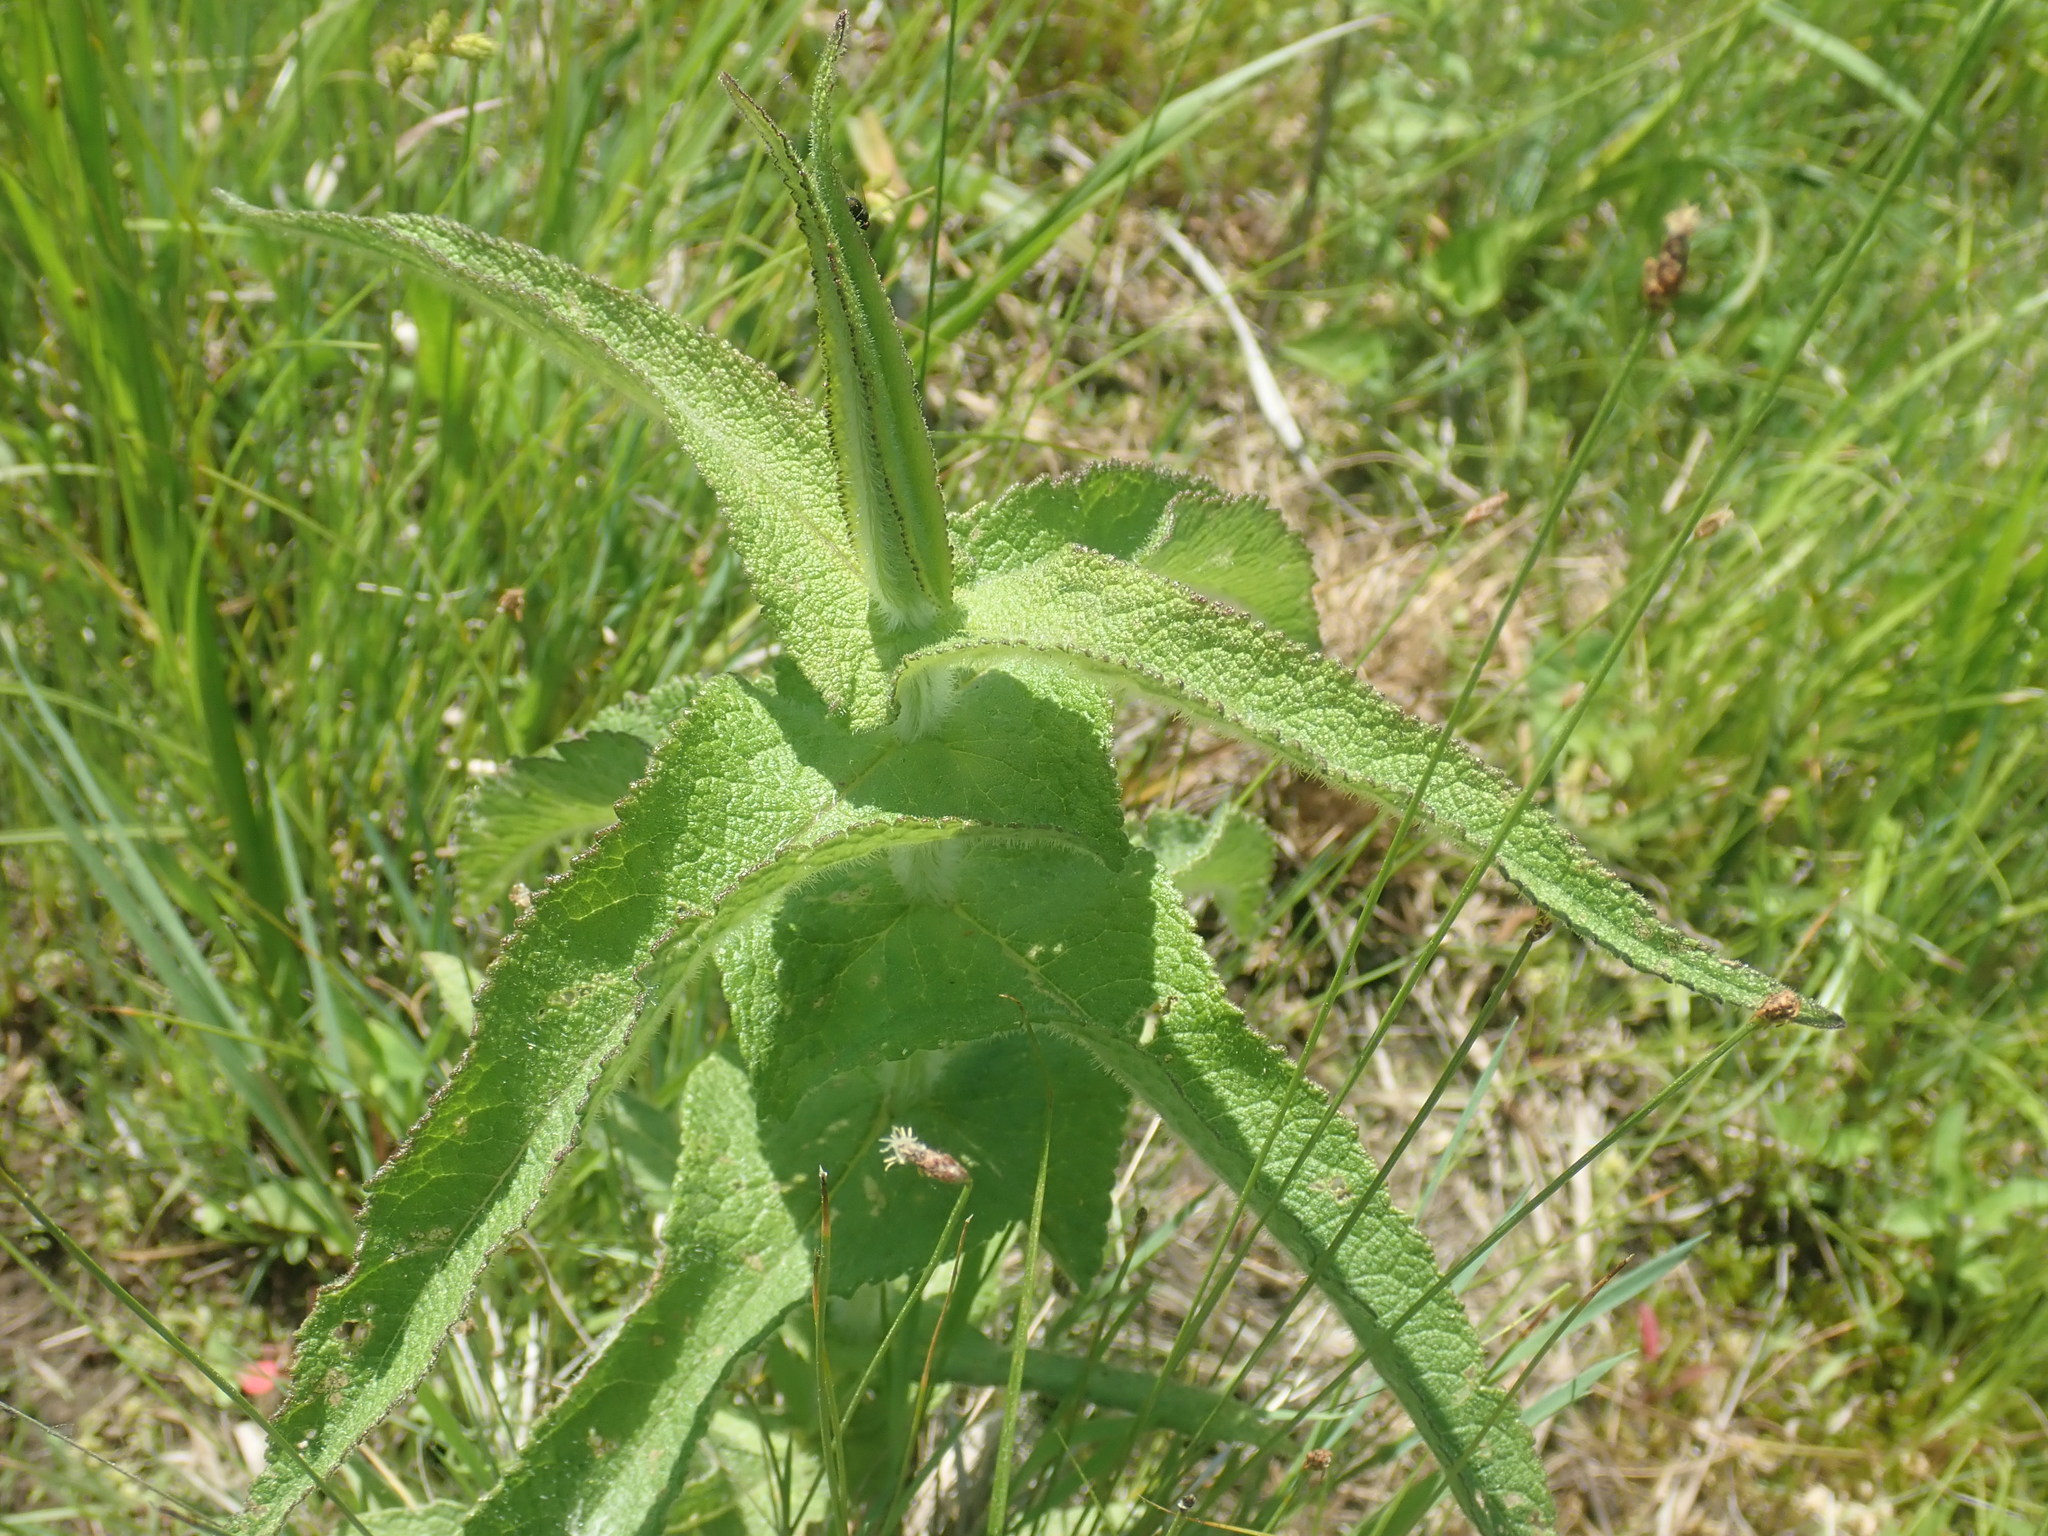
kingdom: Plantae
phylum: Tracheophyta
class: Magnoliopsida
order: Asterales
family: Asteraceae
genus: Eupatorium
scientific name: Eupatorium perfoliatum
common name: Boneset
